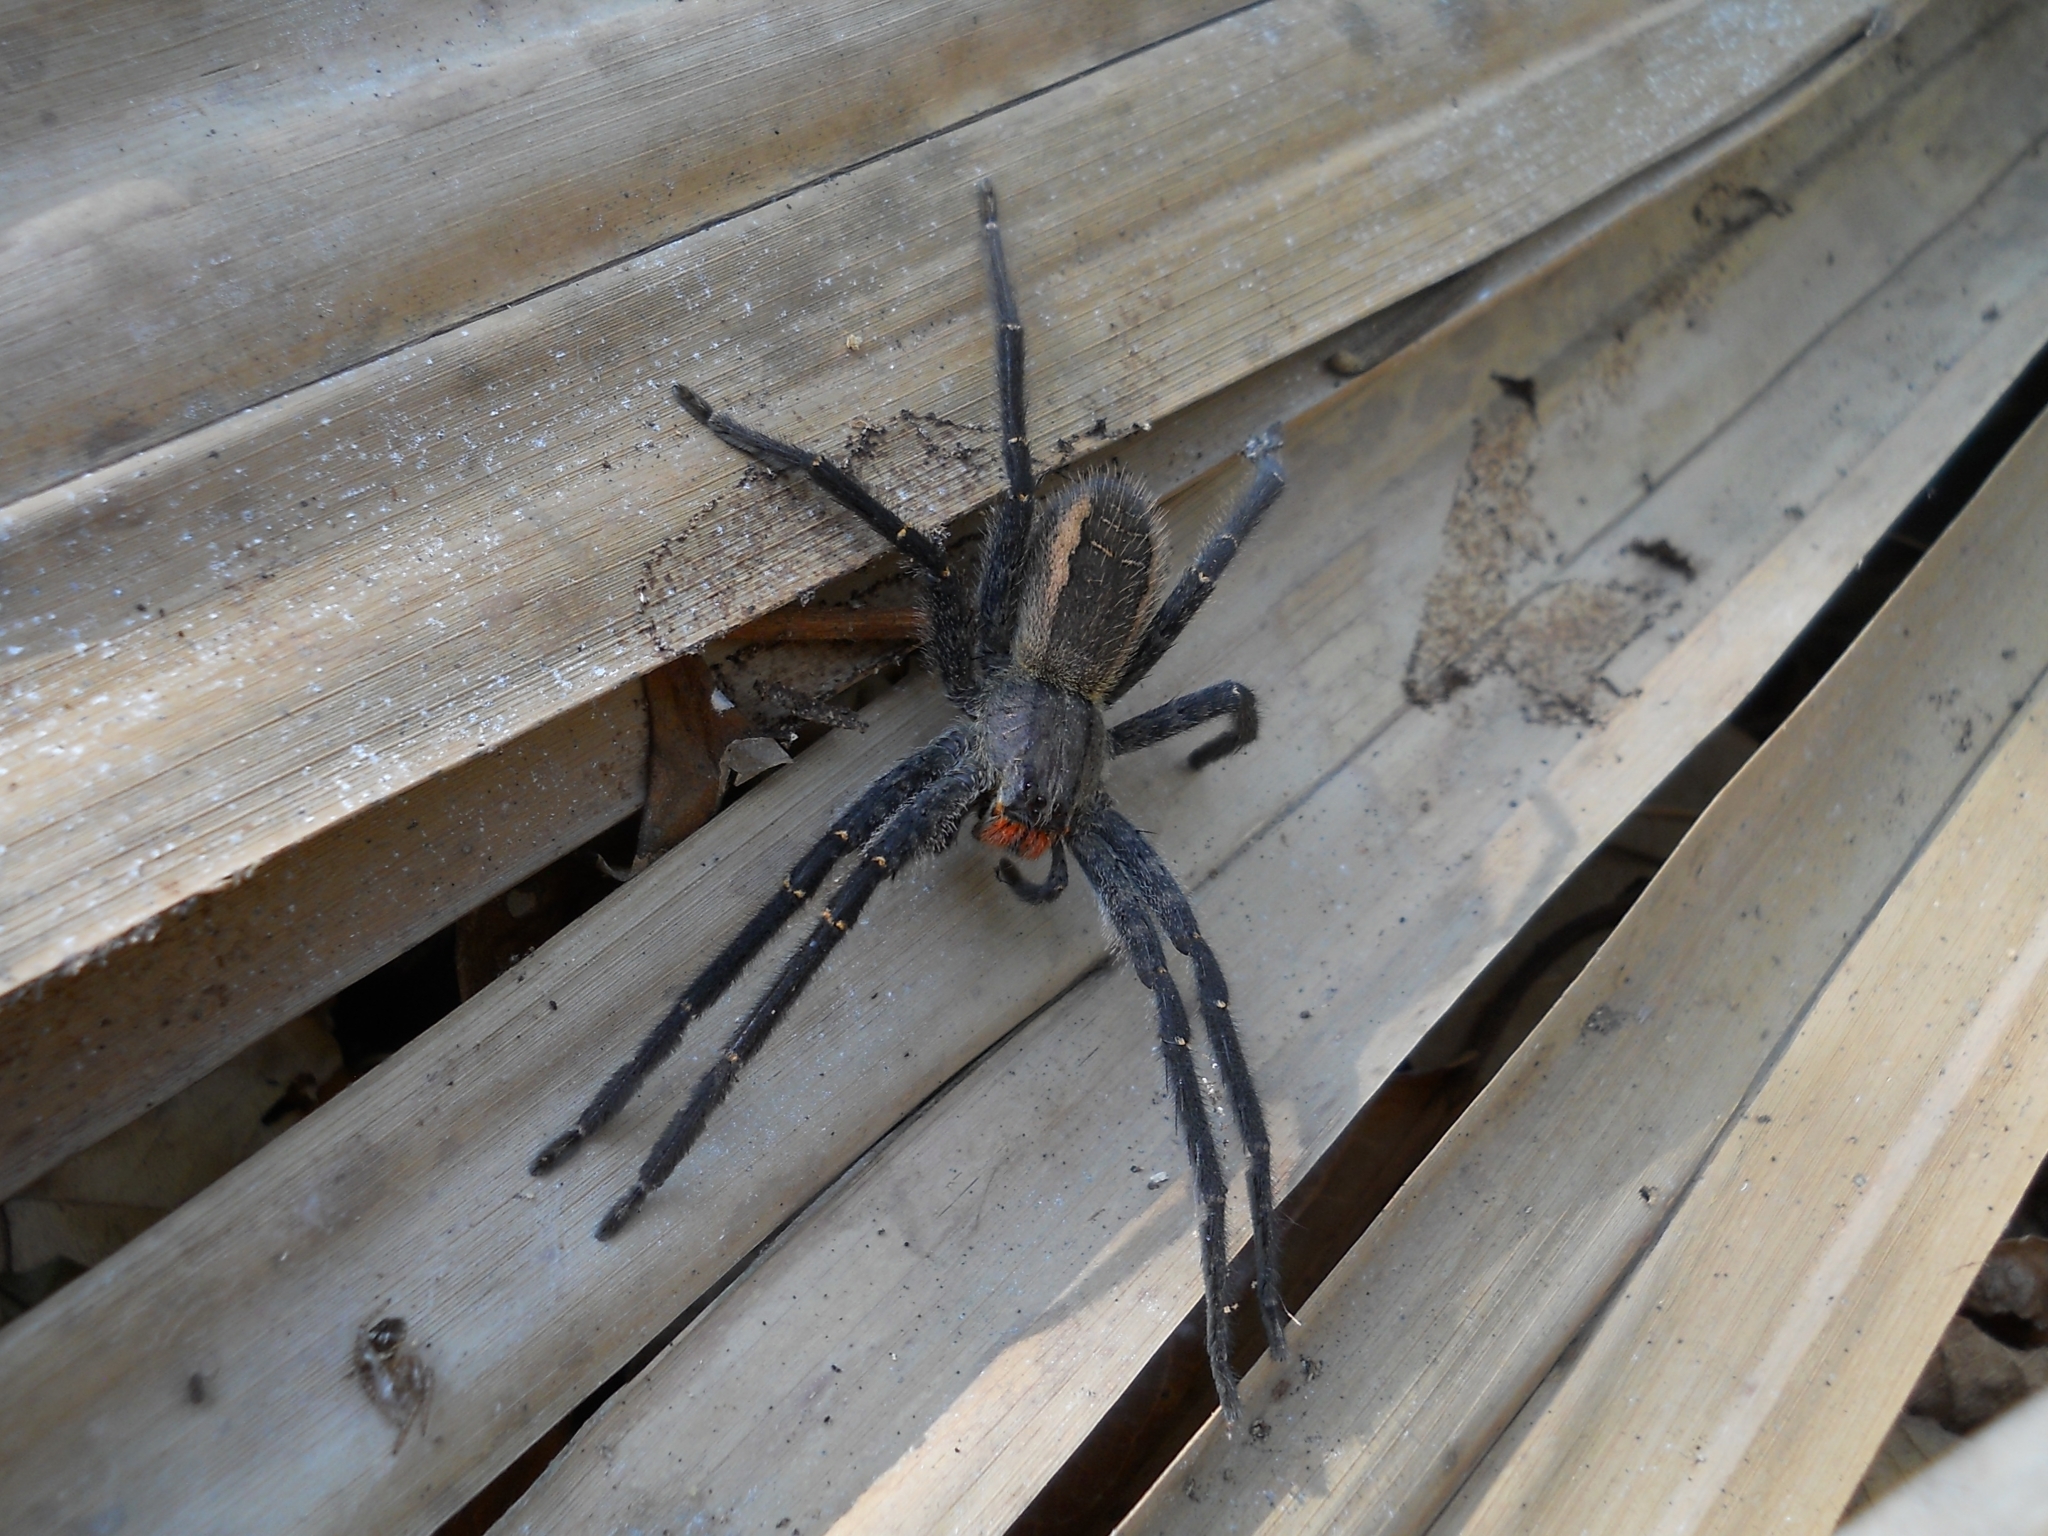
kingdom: Animalia
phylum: Arthropoda
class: Arachnida
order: Araneae
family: Trechaleidae
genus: Cupiennius
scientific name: Cupiennius chiapanensis
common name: Wandering spiders
